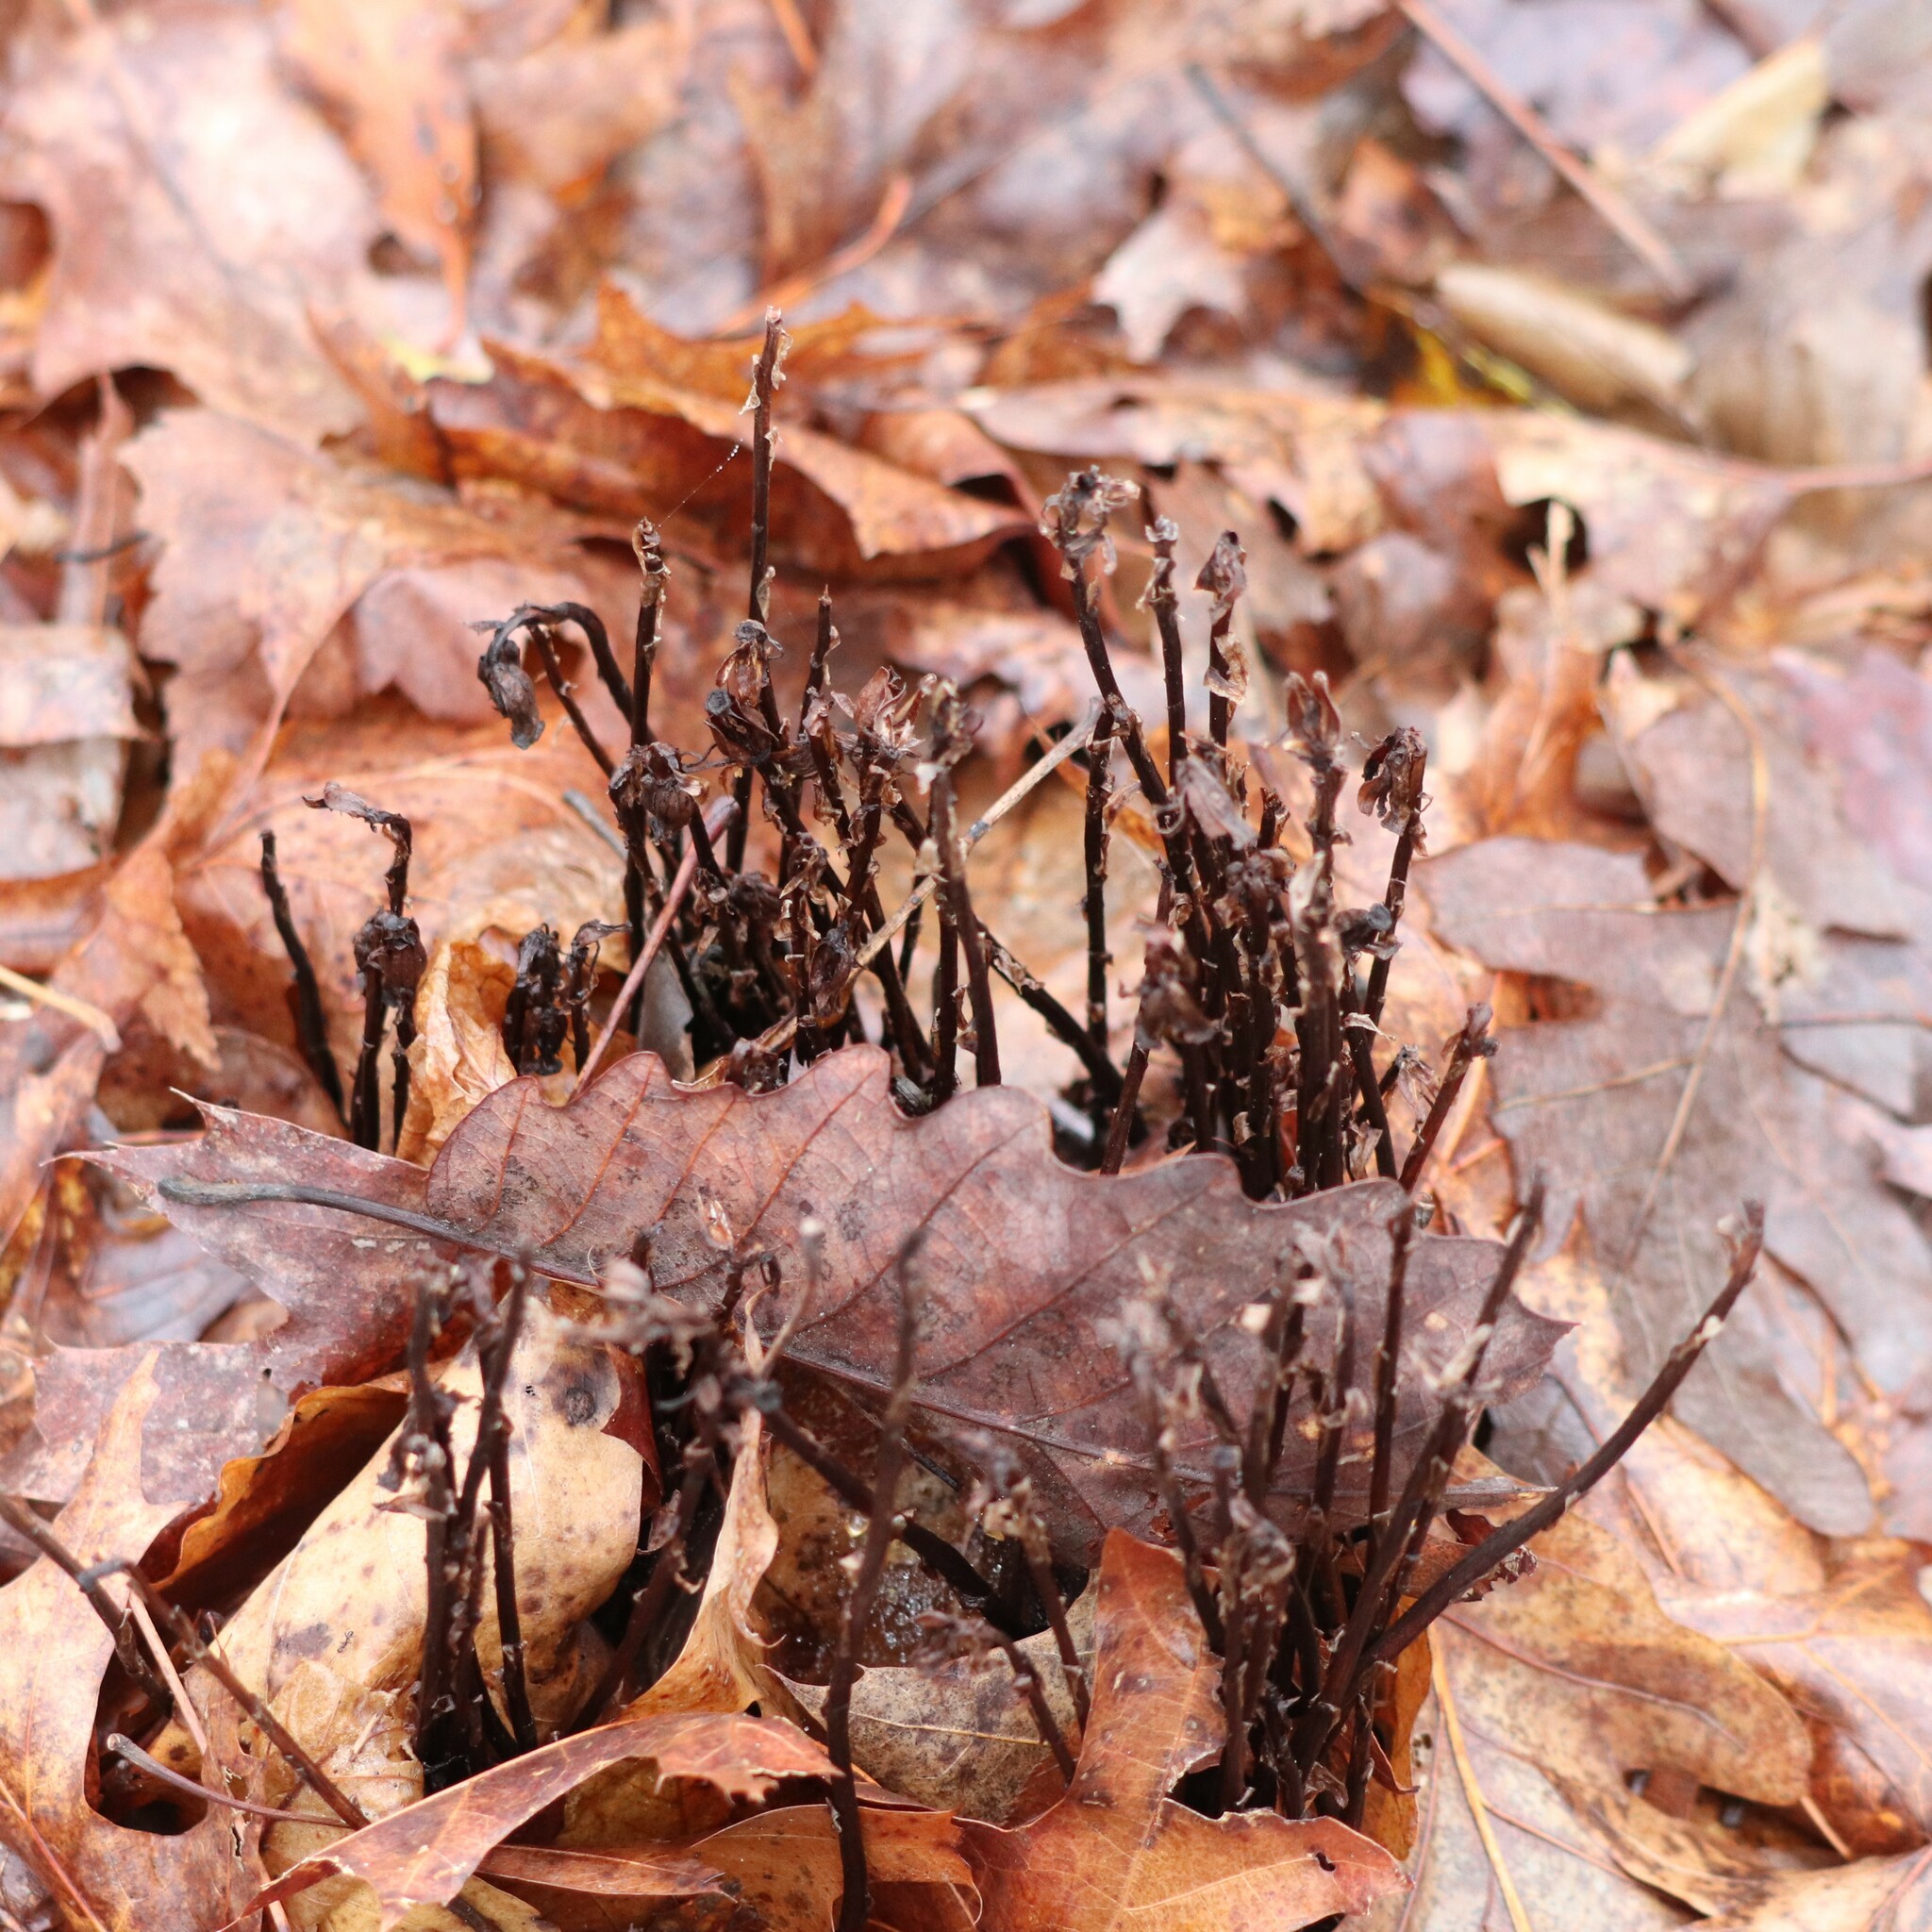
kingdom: Plantae
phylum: Tracheophyta
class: Magnoliopsida
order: Ericales
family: Ericaceae
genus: Monotropa
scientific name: Monotropa uniflora
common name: Convulsion root
